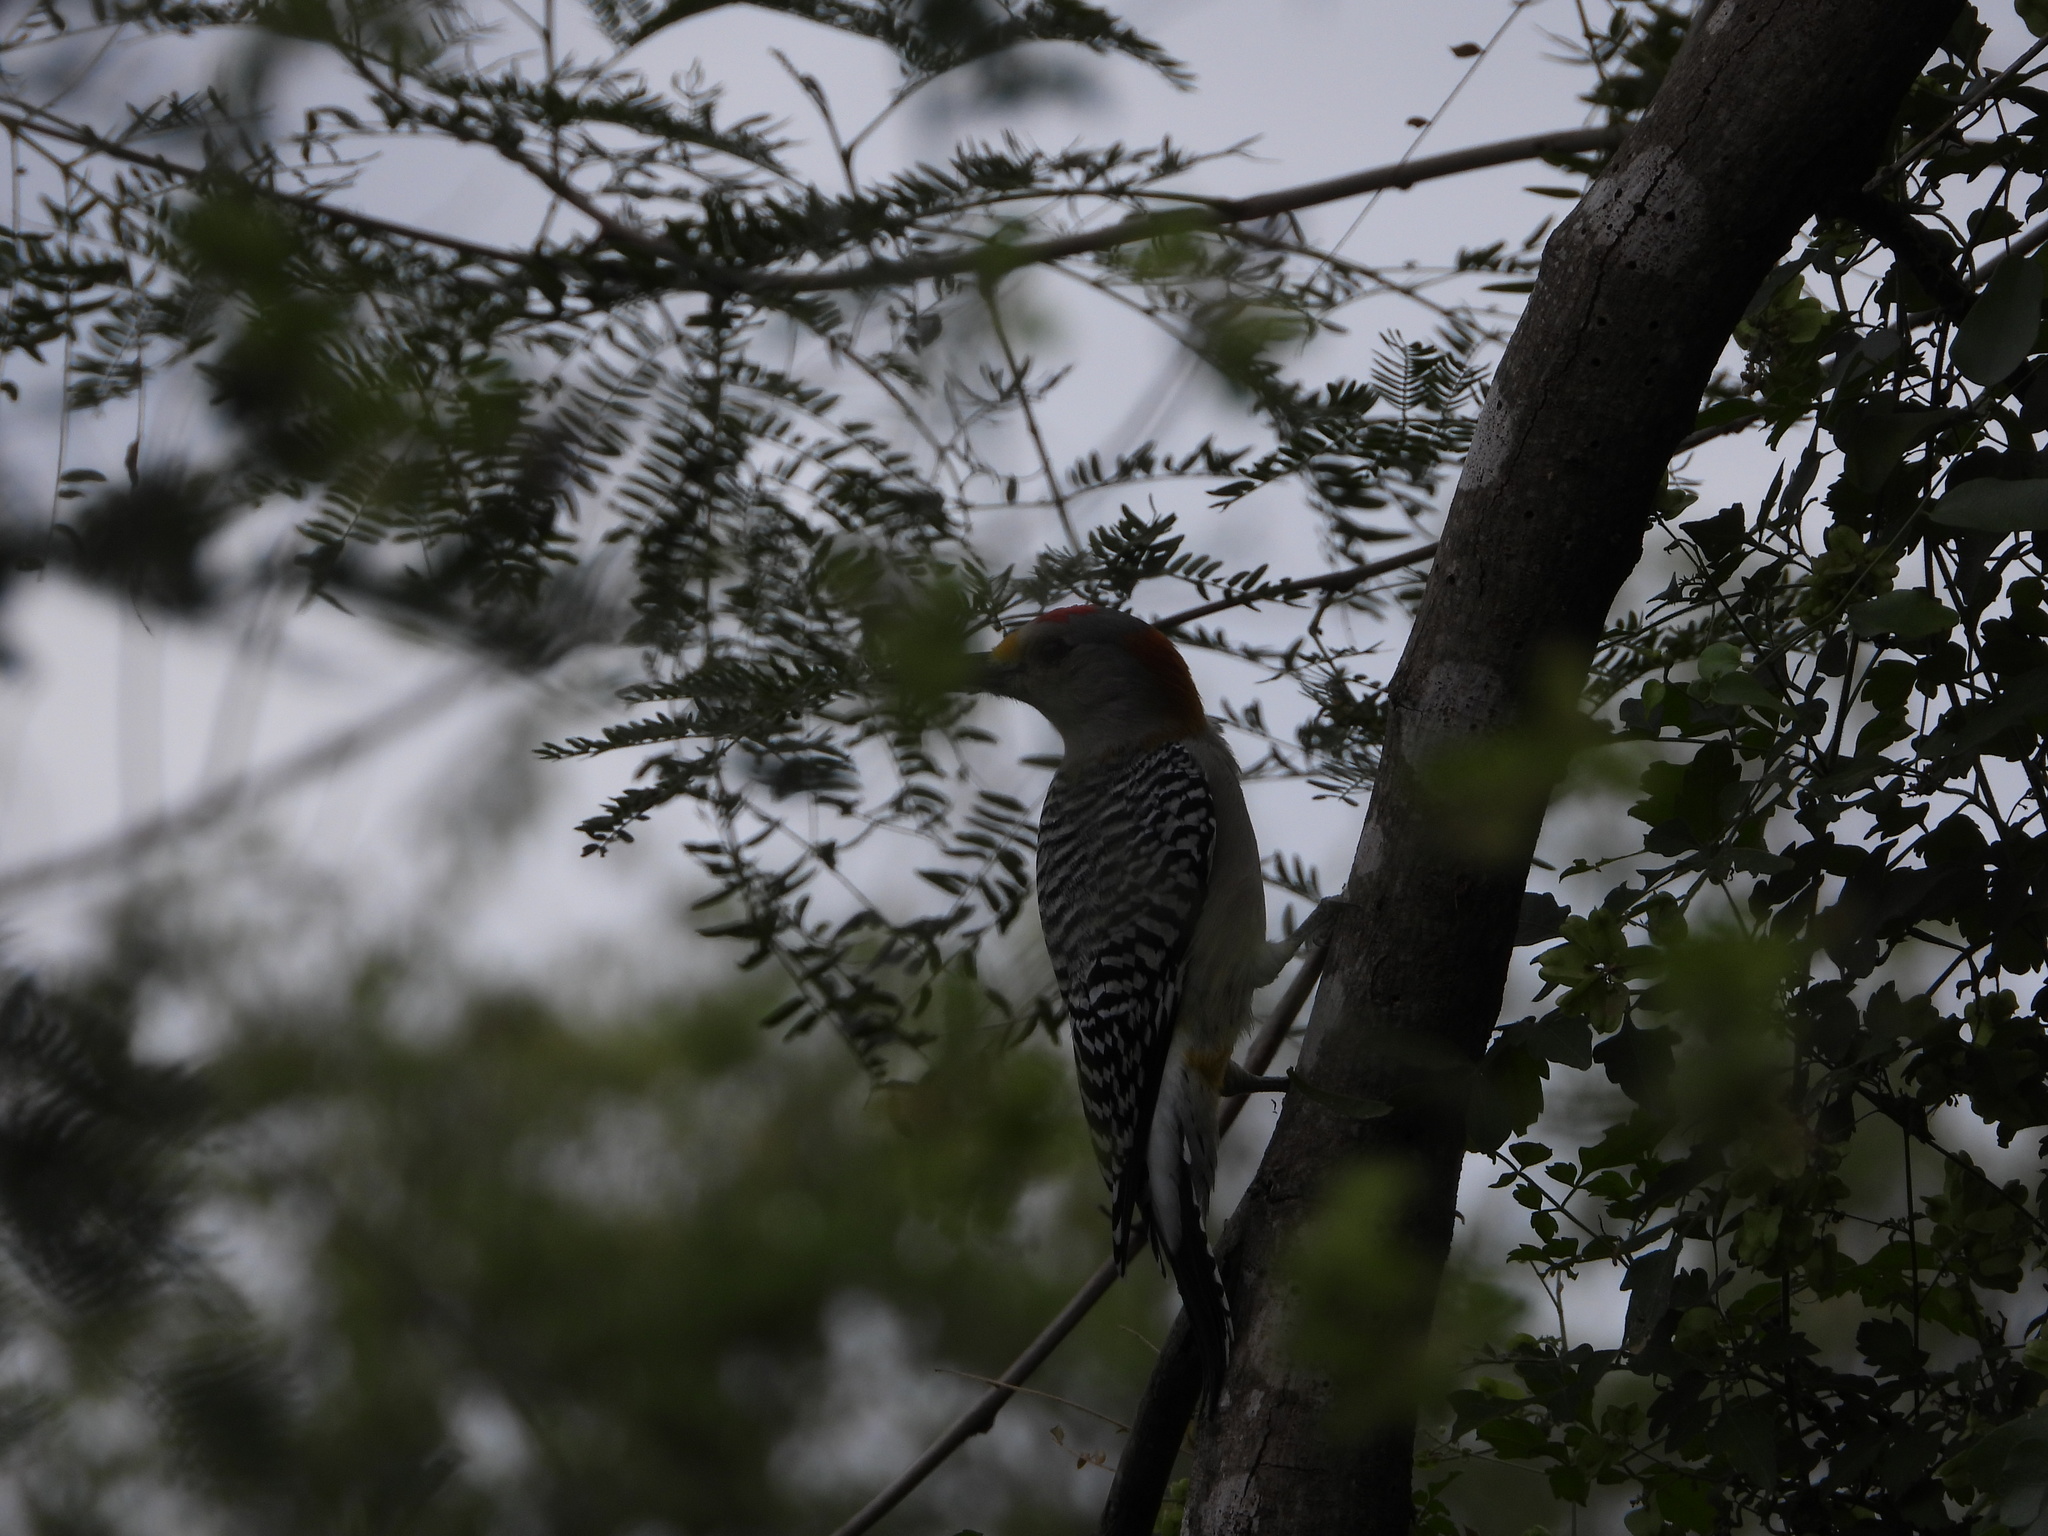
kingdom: Animalia
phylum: Chordata
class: Aves
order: Piciformes
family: Picidae
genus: Melanerpes
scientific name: Melanerpes aurifrons
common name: Golden-fronted woodpecker
